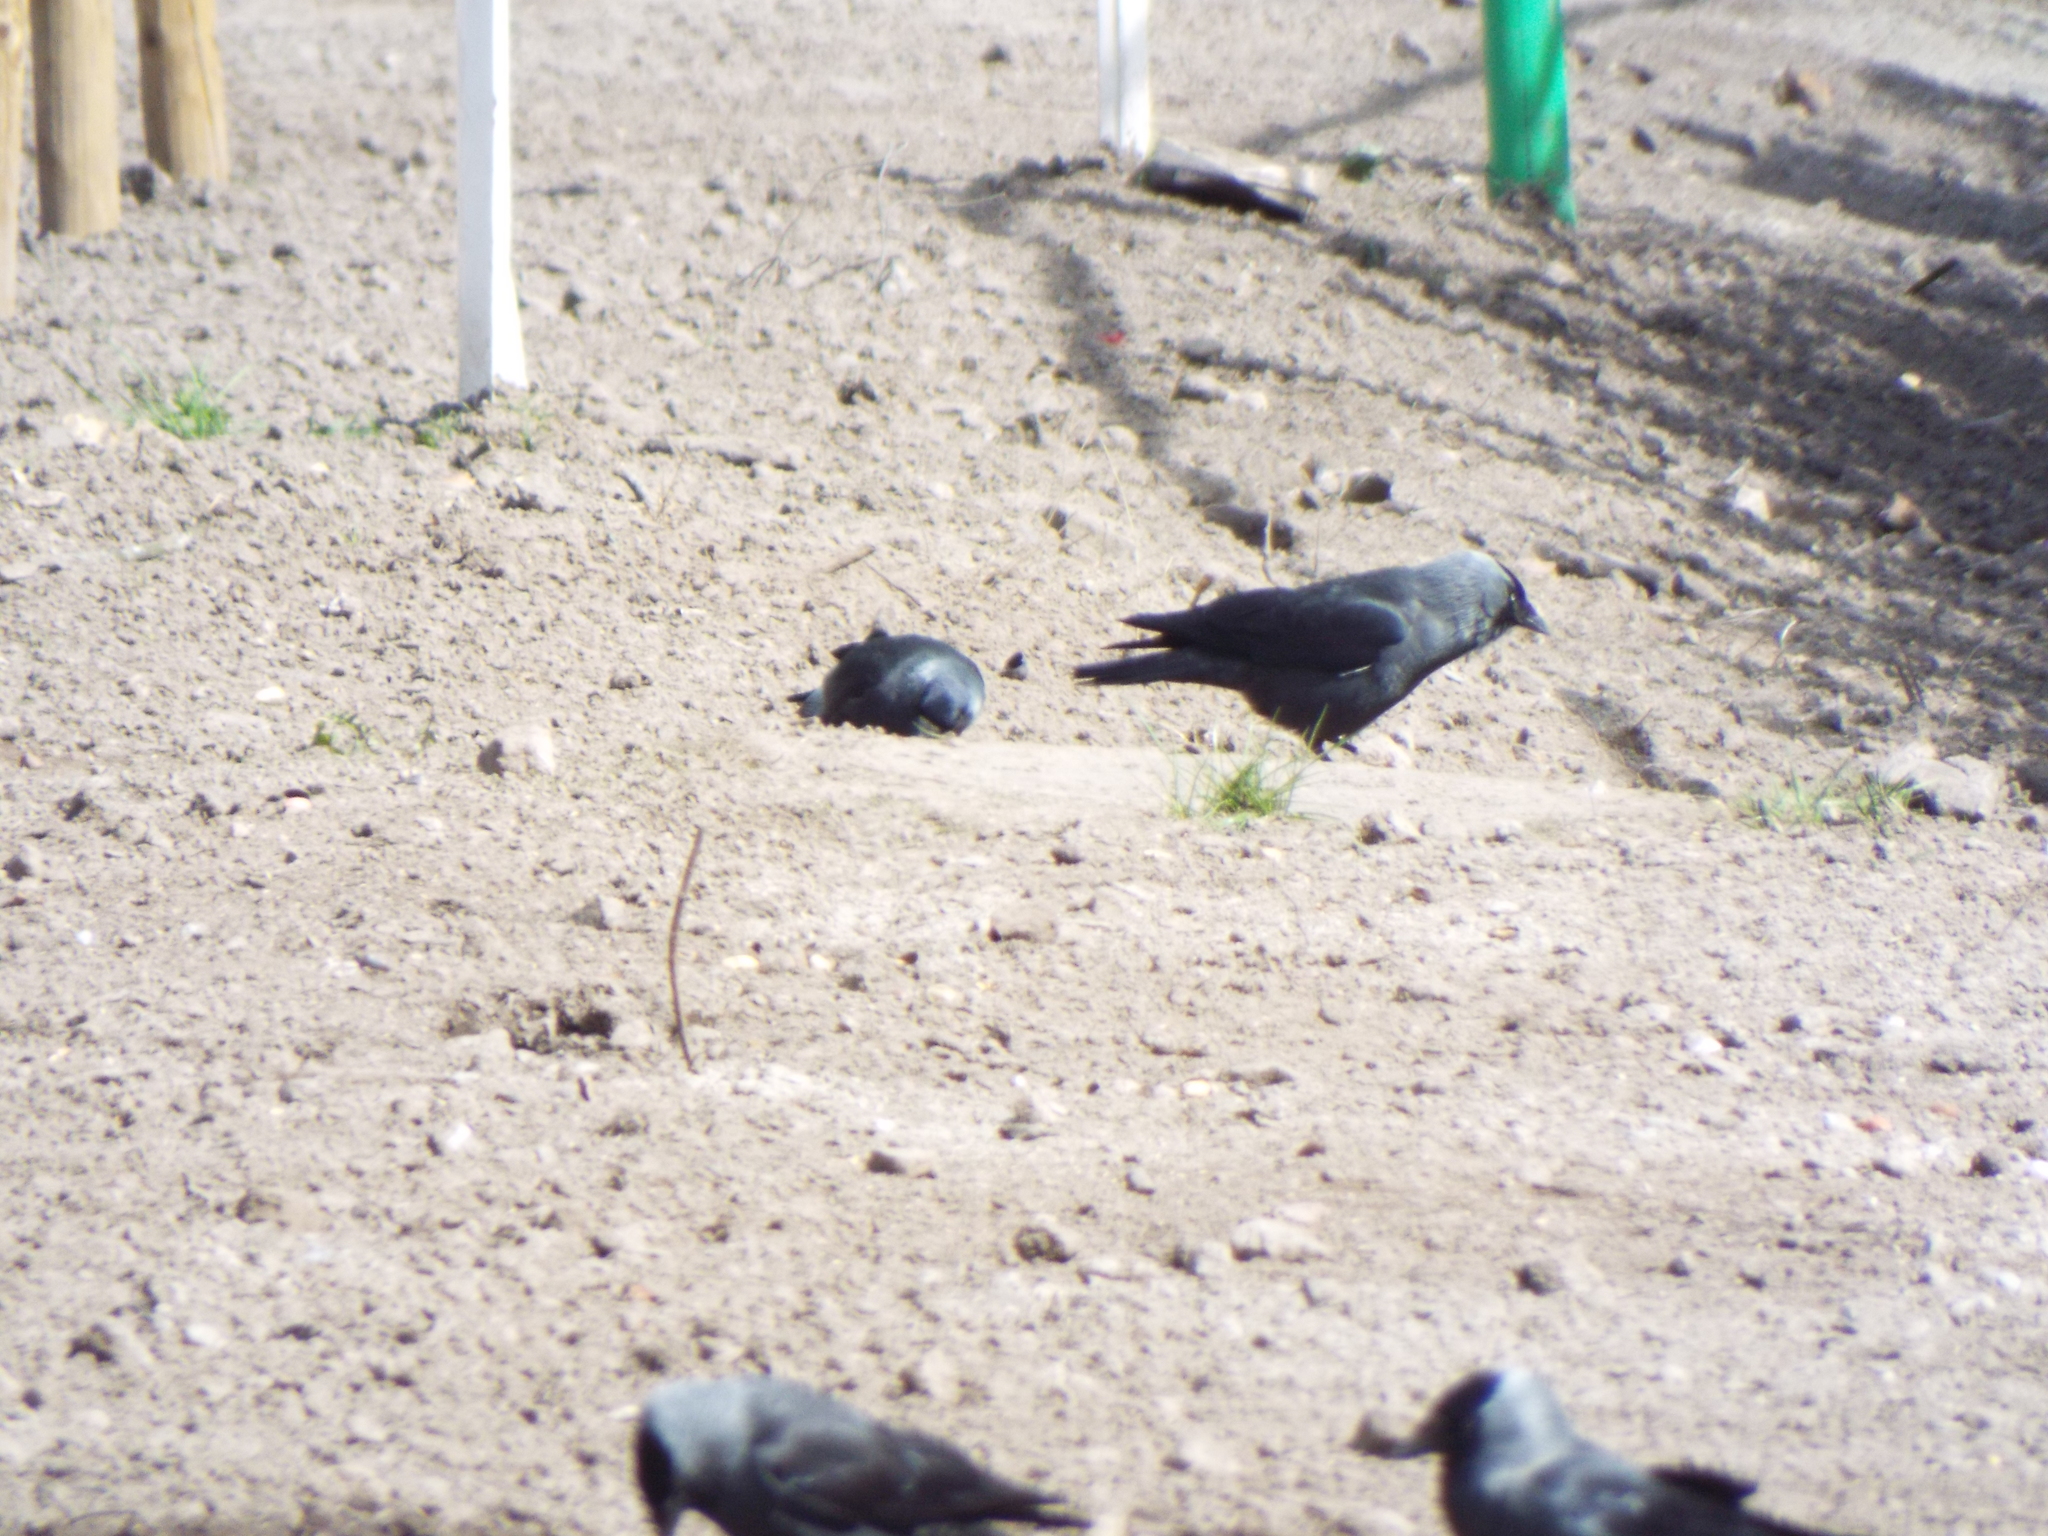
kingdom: Animalia
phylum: Chordata
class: Aves
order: Passeriformes
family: Corvidae
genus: Coloeus
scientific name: Coloeus monedula
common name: Western jackdaw
